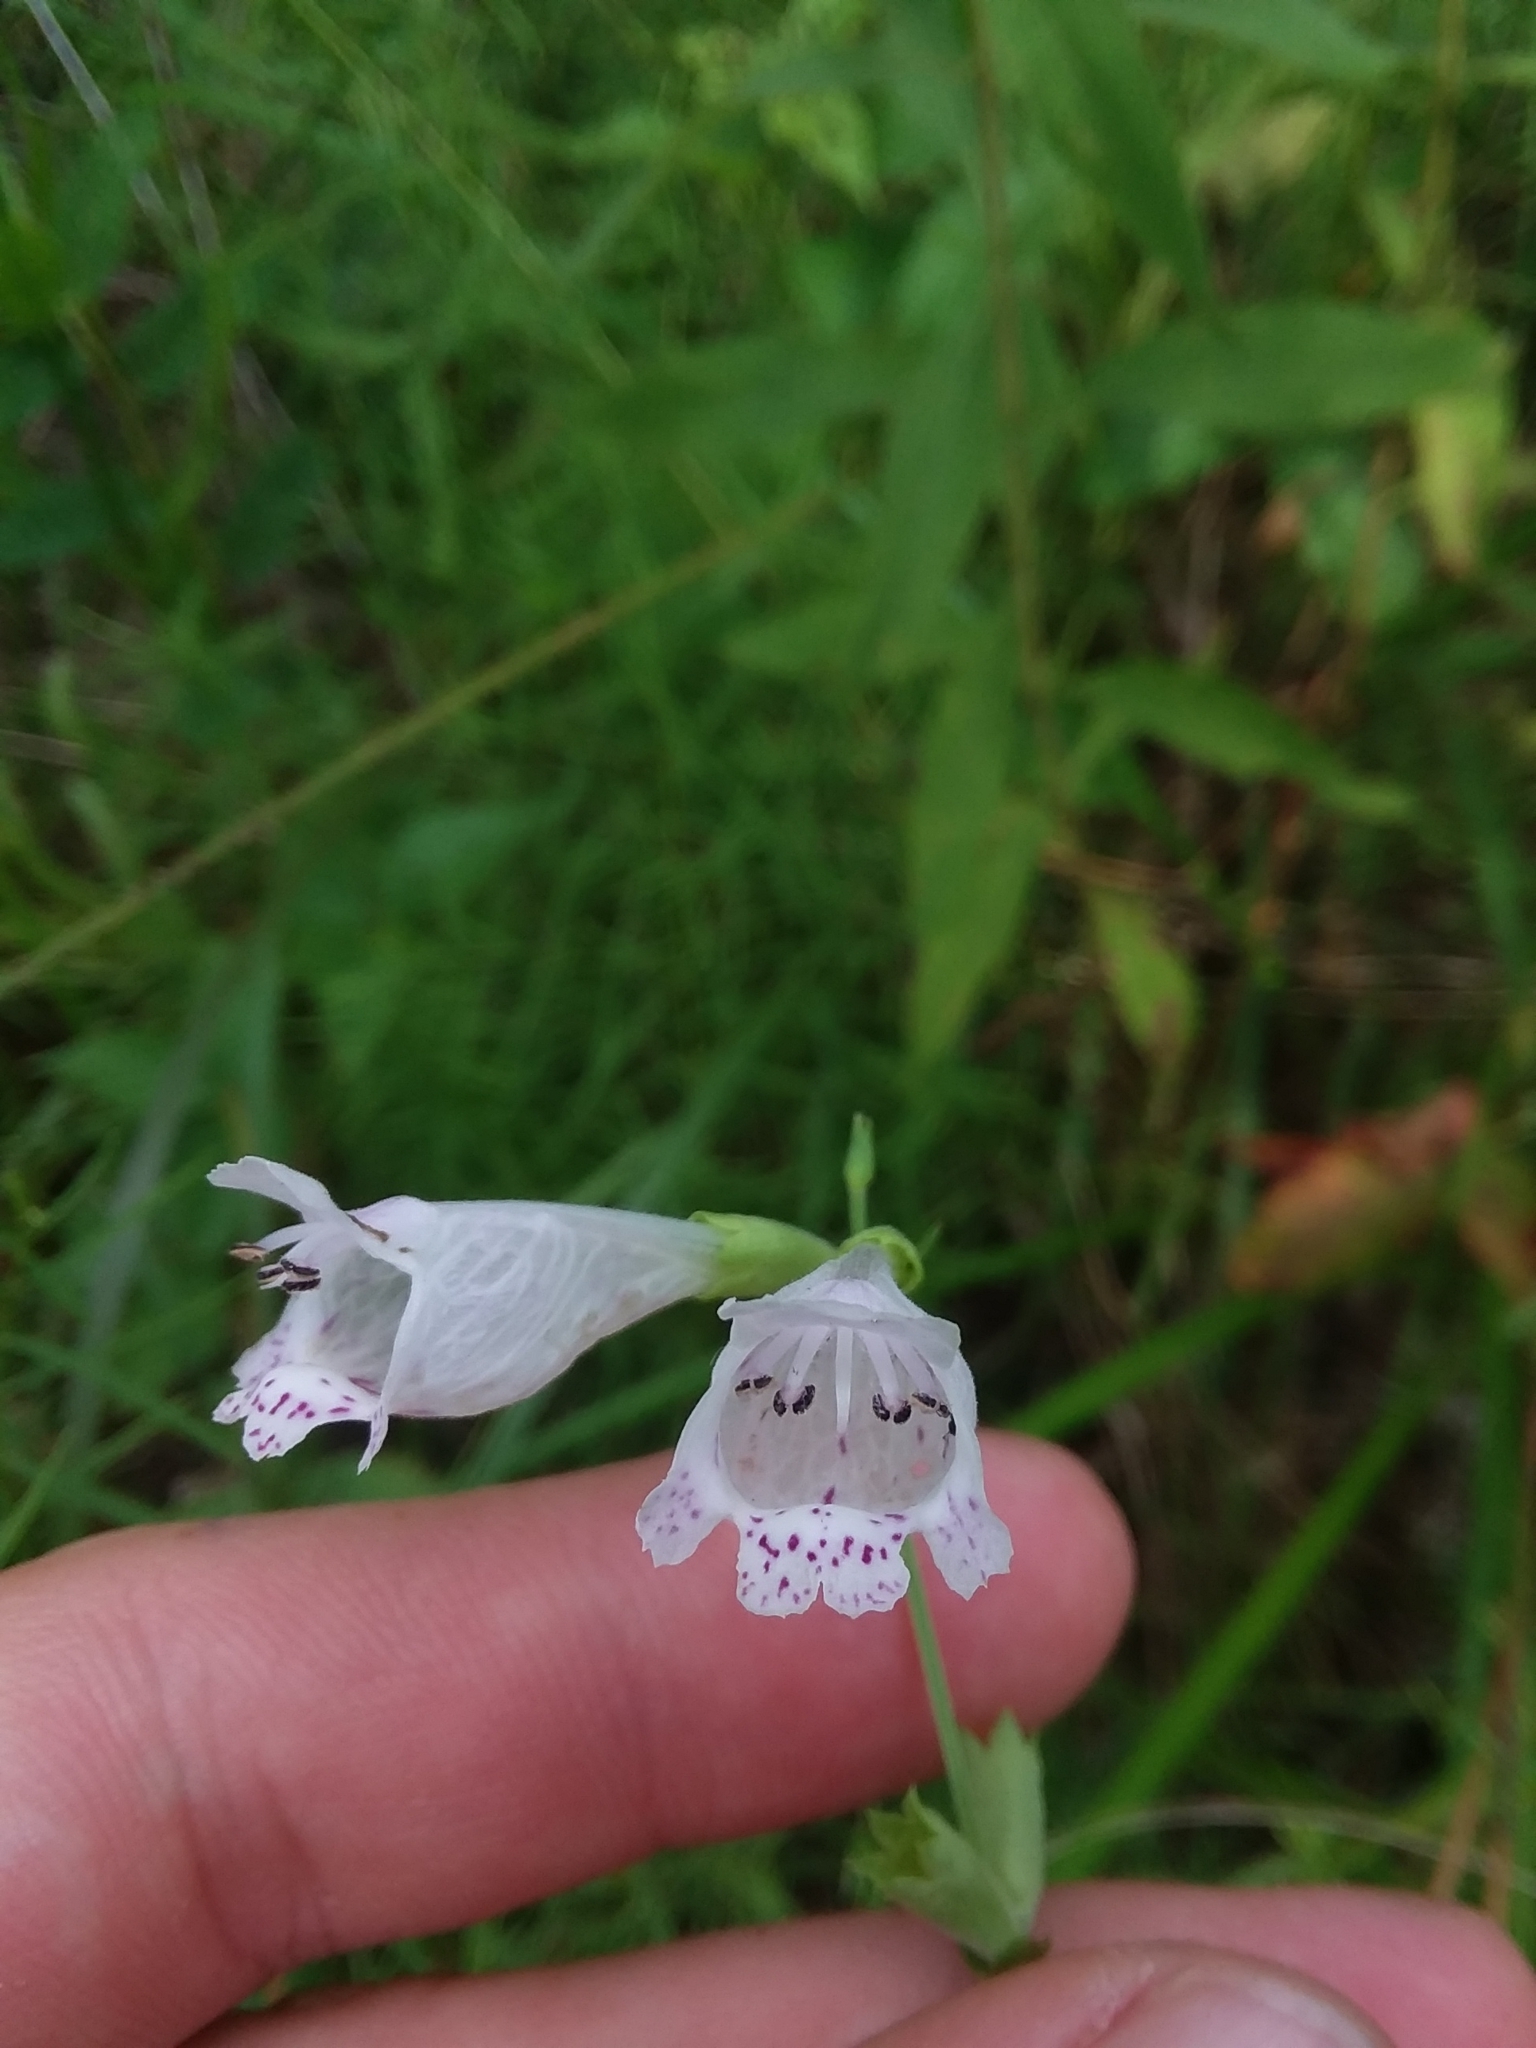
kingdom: Plantae
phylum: Tracheophyta
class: Magnoliopsida
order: Lamiales
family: Lamiaceae
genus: Physostegia
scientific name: Physostegia angustifolia
